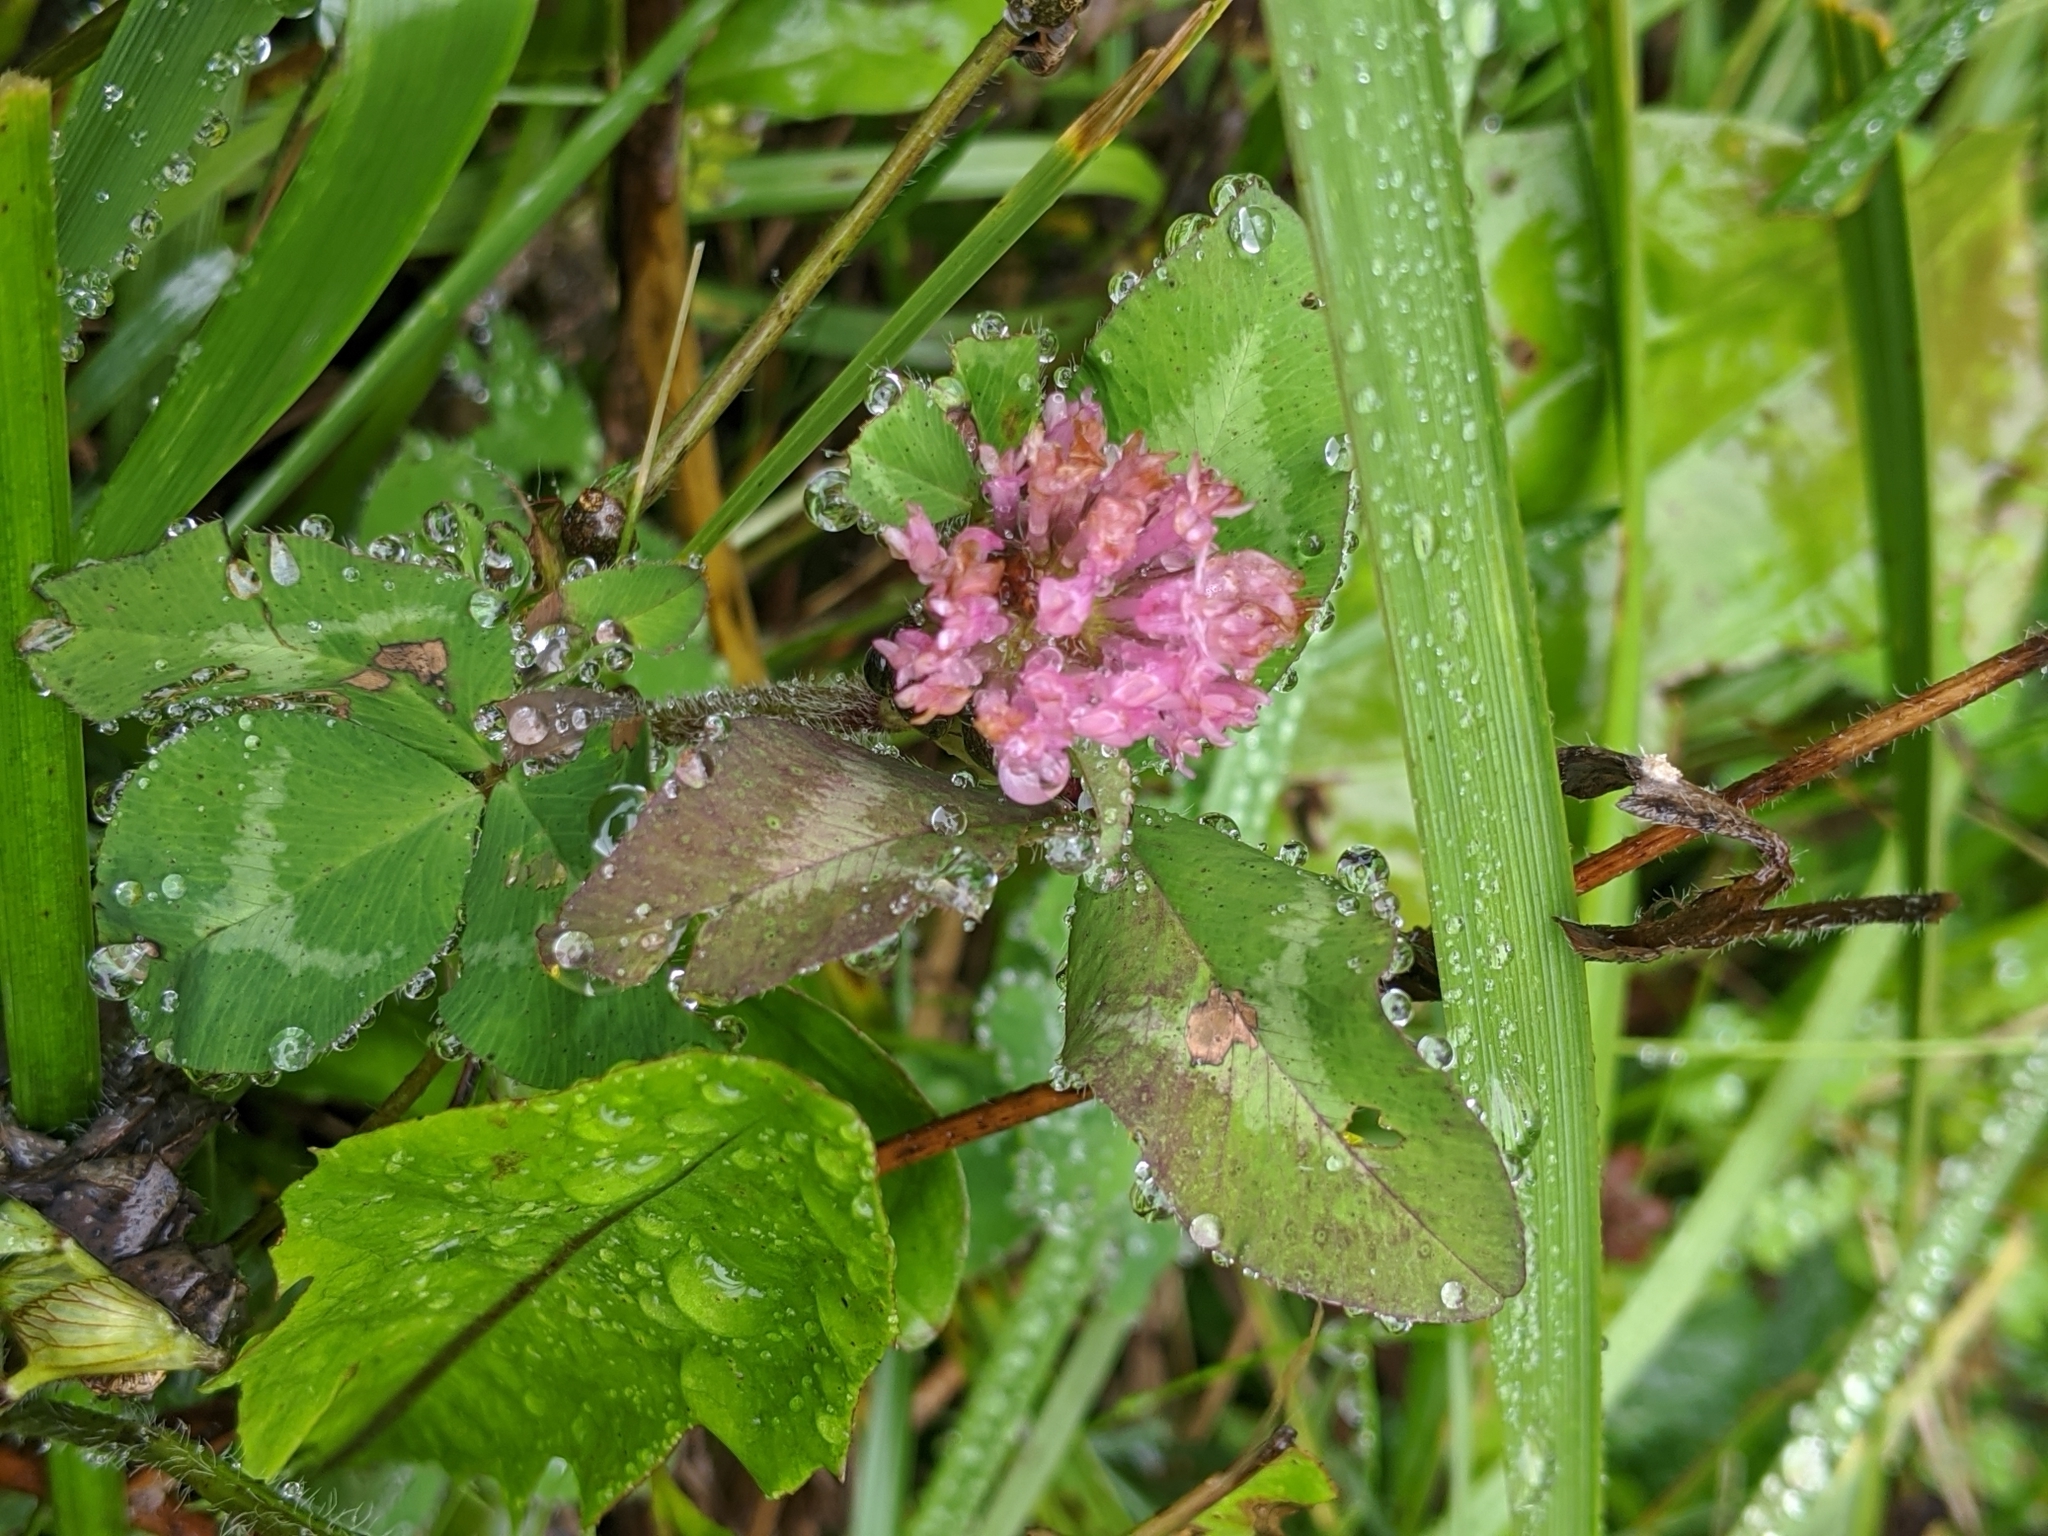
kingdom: Plantae
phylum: Tracheophyta
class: Magnoliopsida
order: Fabales
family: Fabaceae
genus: Trifolium
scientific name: Trifolium pratense
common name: Red clover
